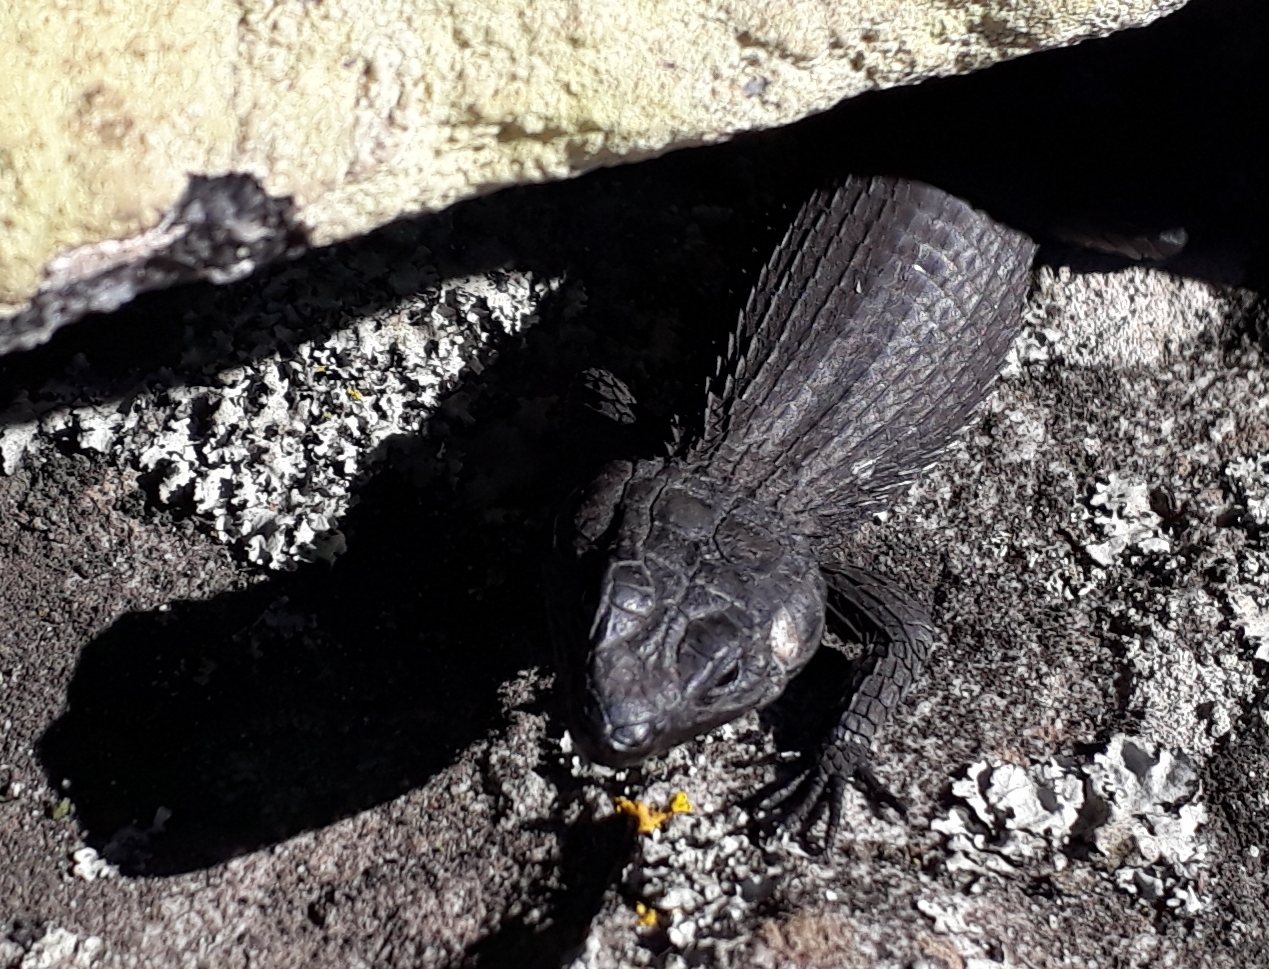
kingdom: Animalia
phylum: Chordata
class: Squamata
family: Cordylidae
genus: Cordylus
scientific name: Cordylus niger
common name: Black girdled lizard
